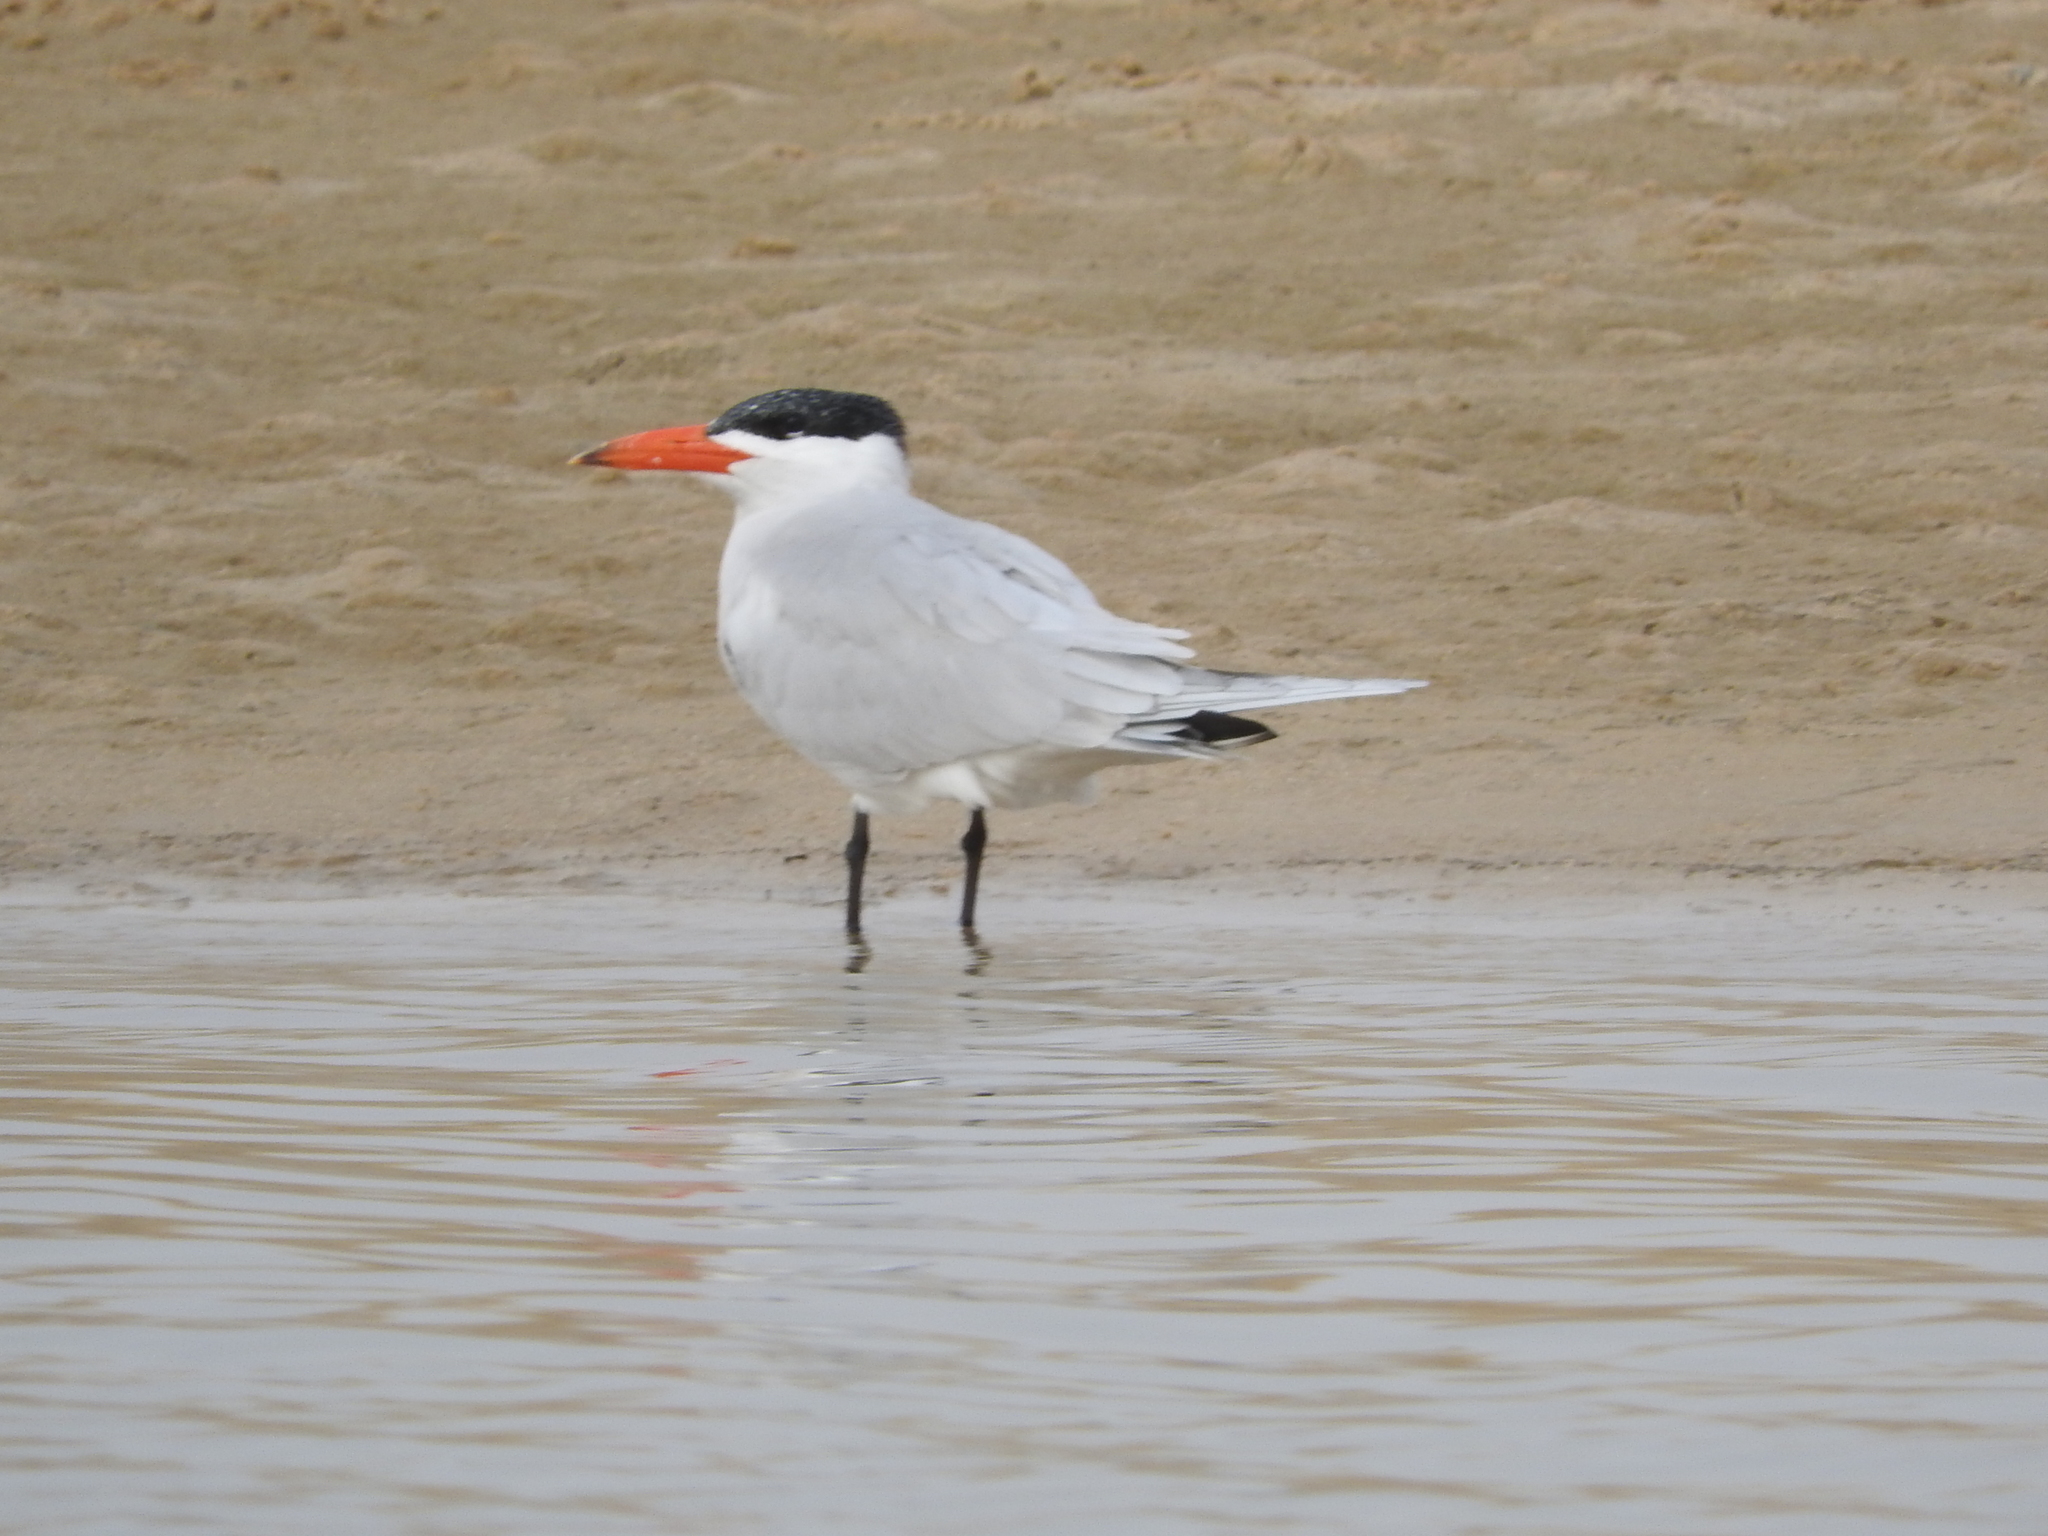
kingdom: Animalia
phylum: Chordata
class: Aves
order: Charadriiformes
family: Laridae
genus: Hydroprogne
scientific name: Hydroprogne caspia
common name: Caspian tern
